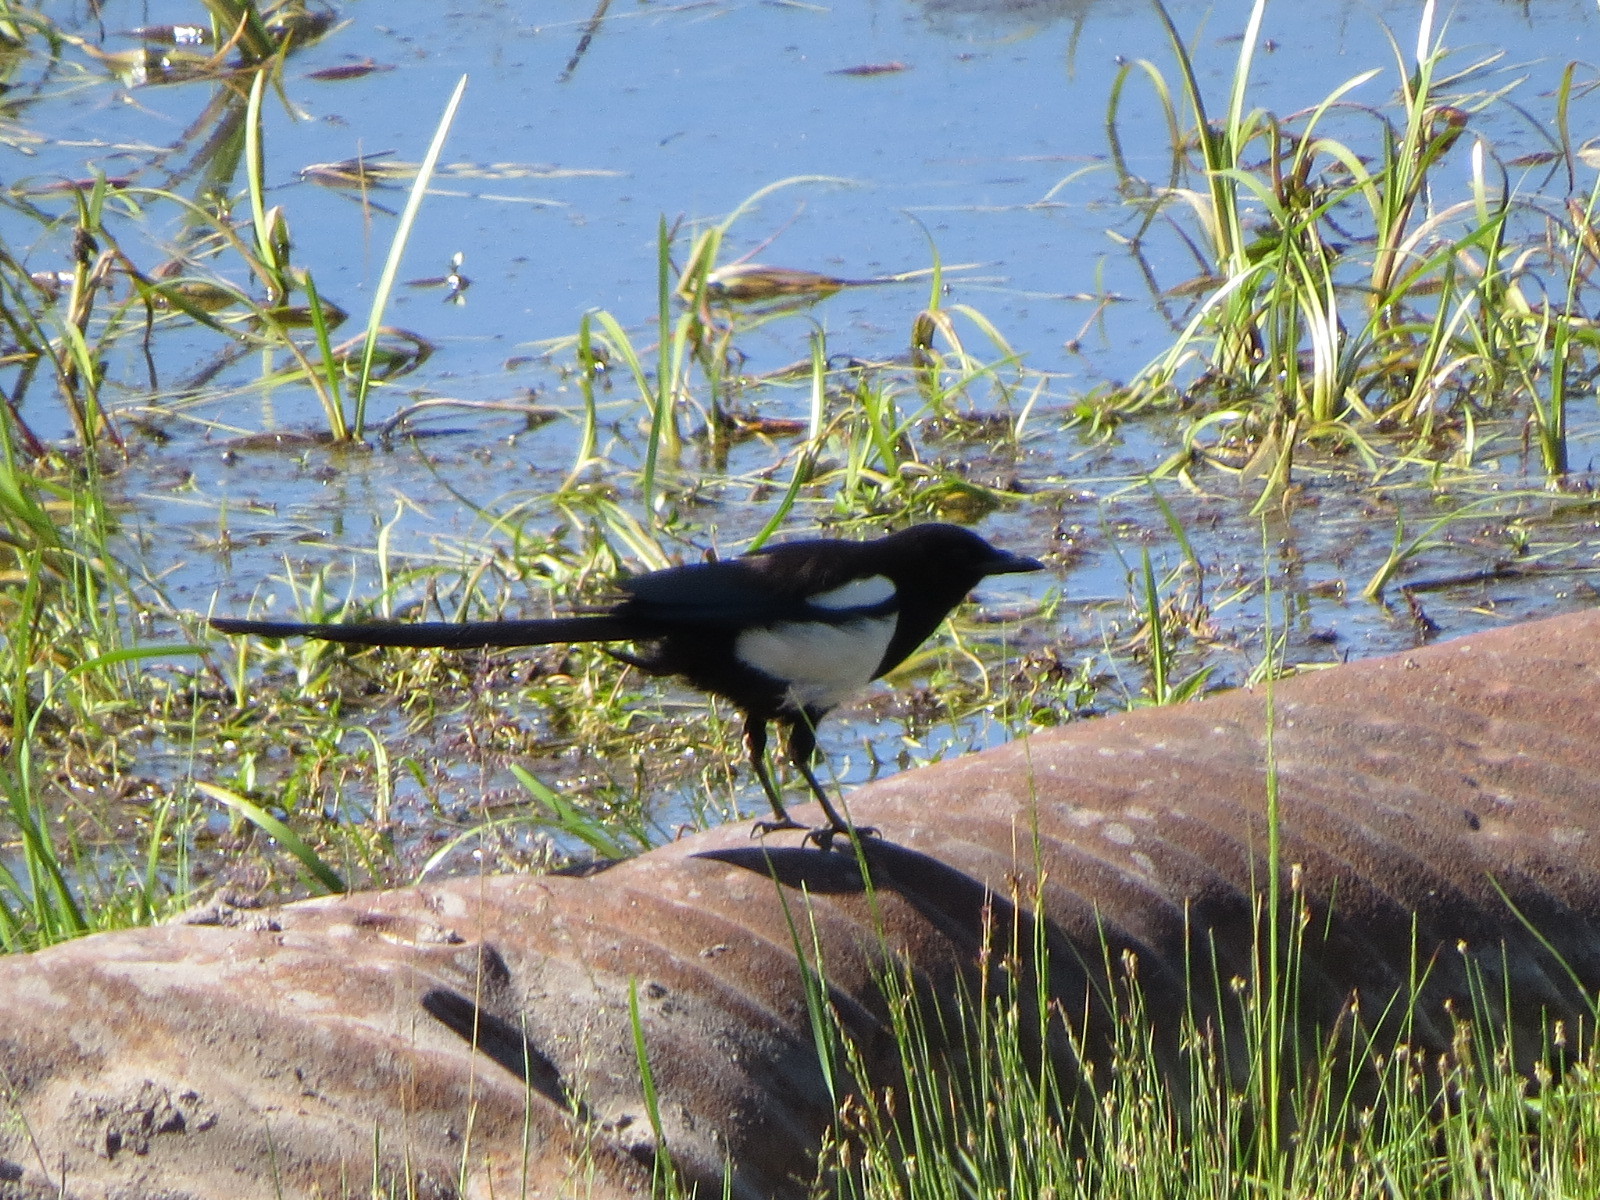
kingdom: Animalia
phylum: Chordata
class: Aves
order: Passeriformes
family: Corvidae
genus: Pica
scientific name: Pica hudsonia
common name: Black-billed magpie
